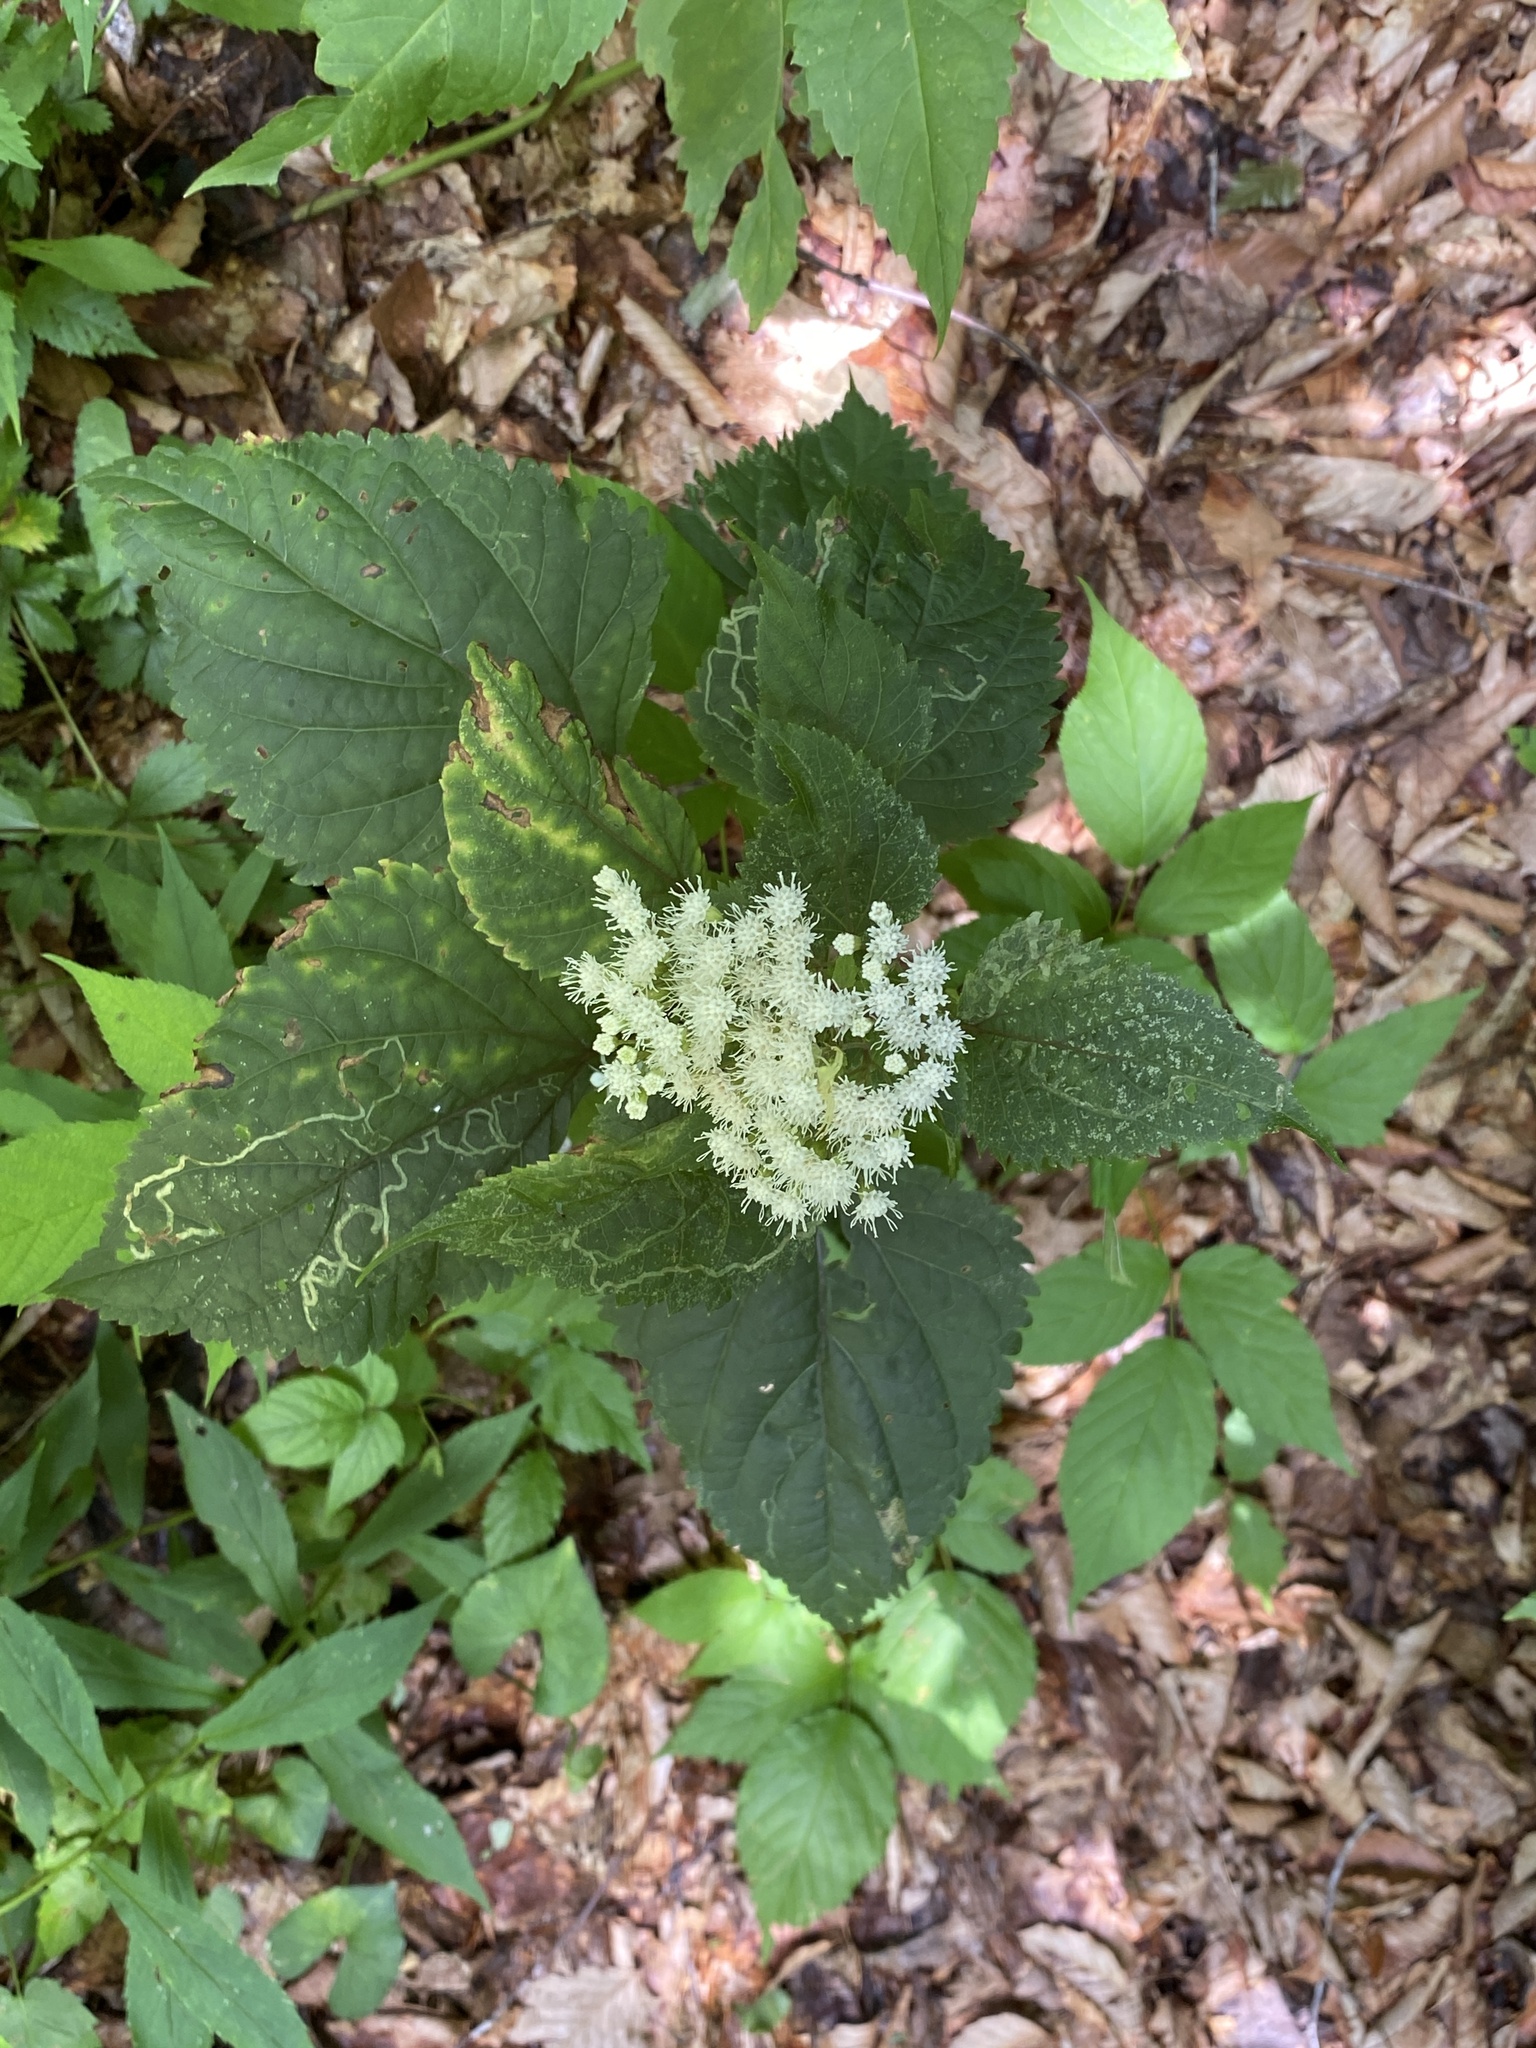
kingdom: Plantae
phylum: Tracheophyta
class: Magnoliopsida
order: Asterales
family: Asteraceae
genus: Ageratina
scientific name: Ageratina altissima
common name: White snakeroot
